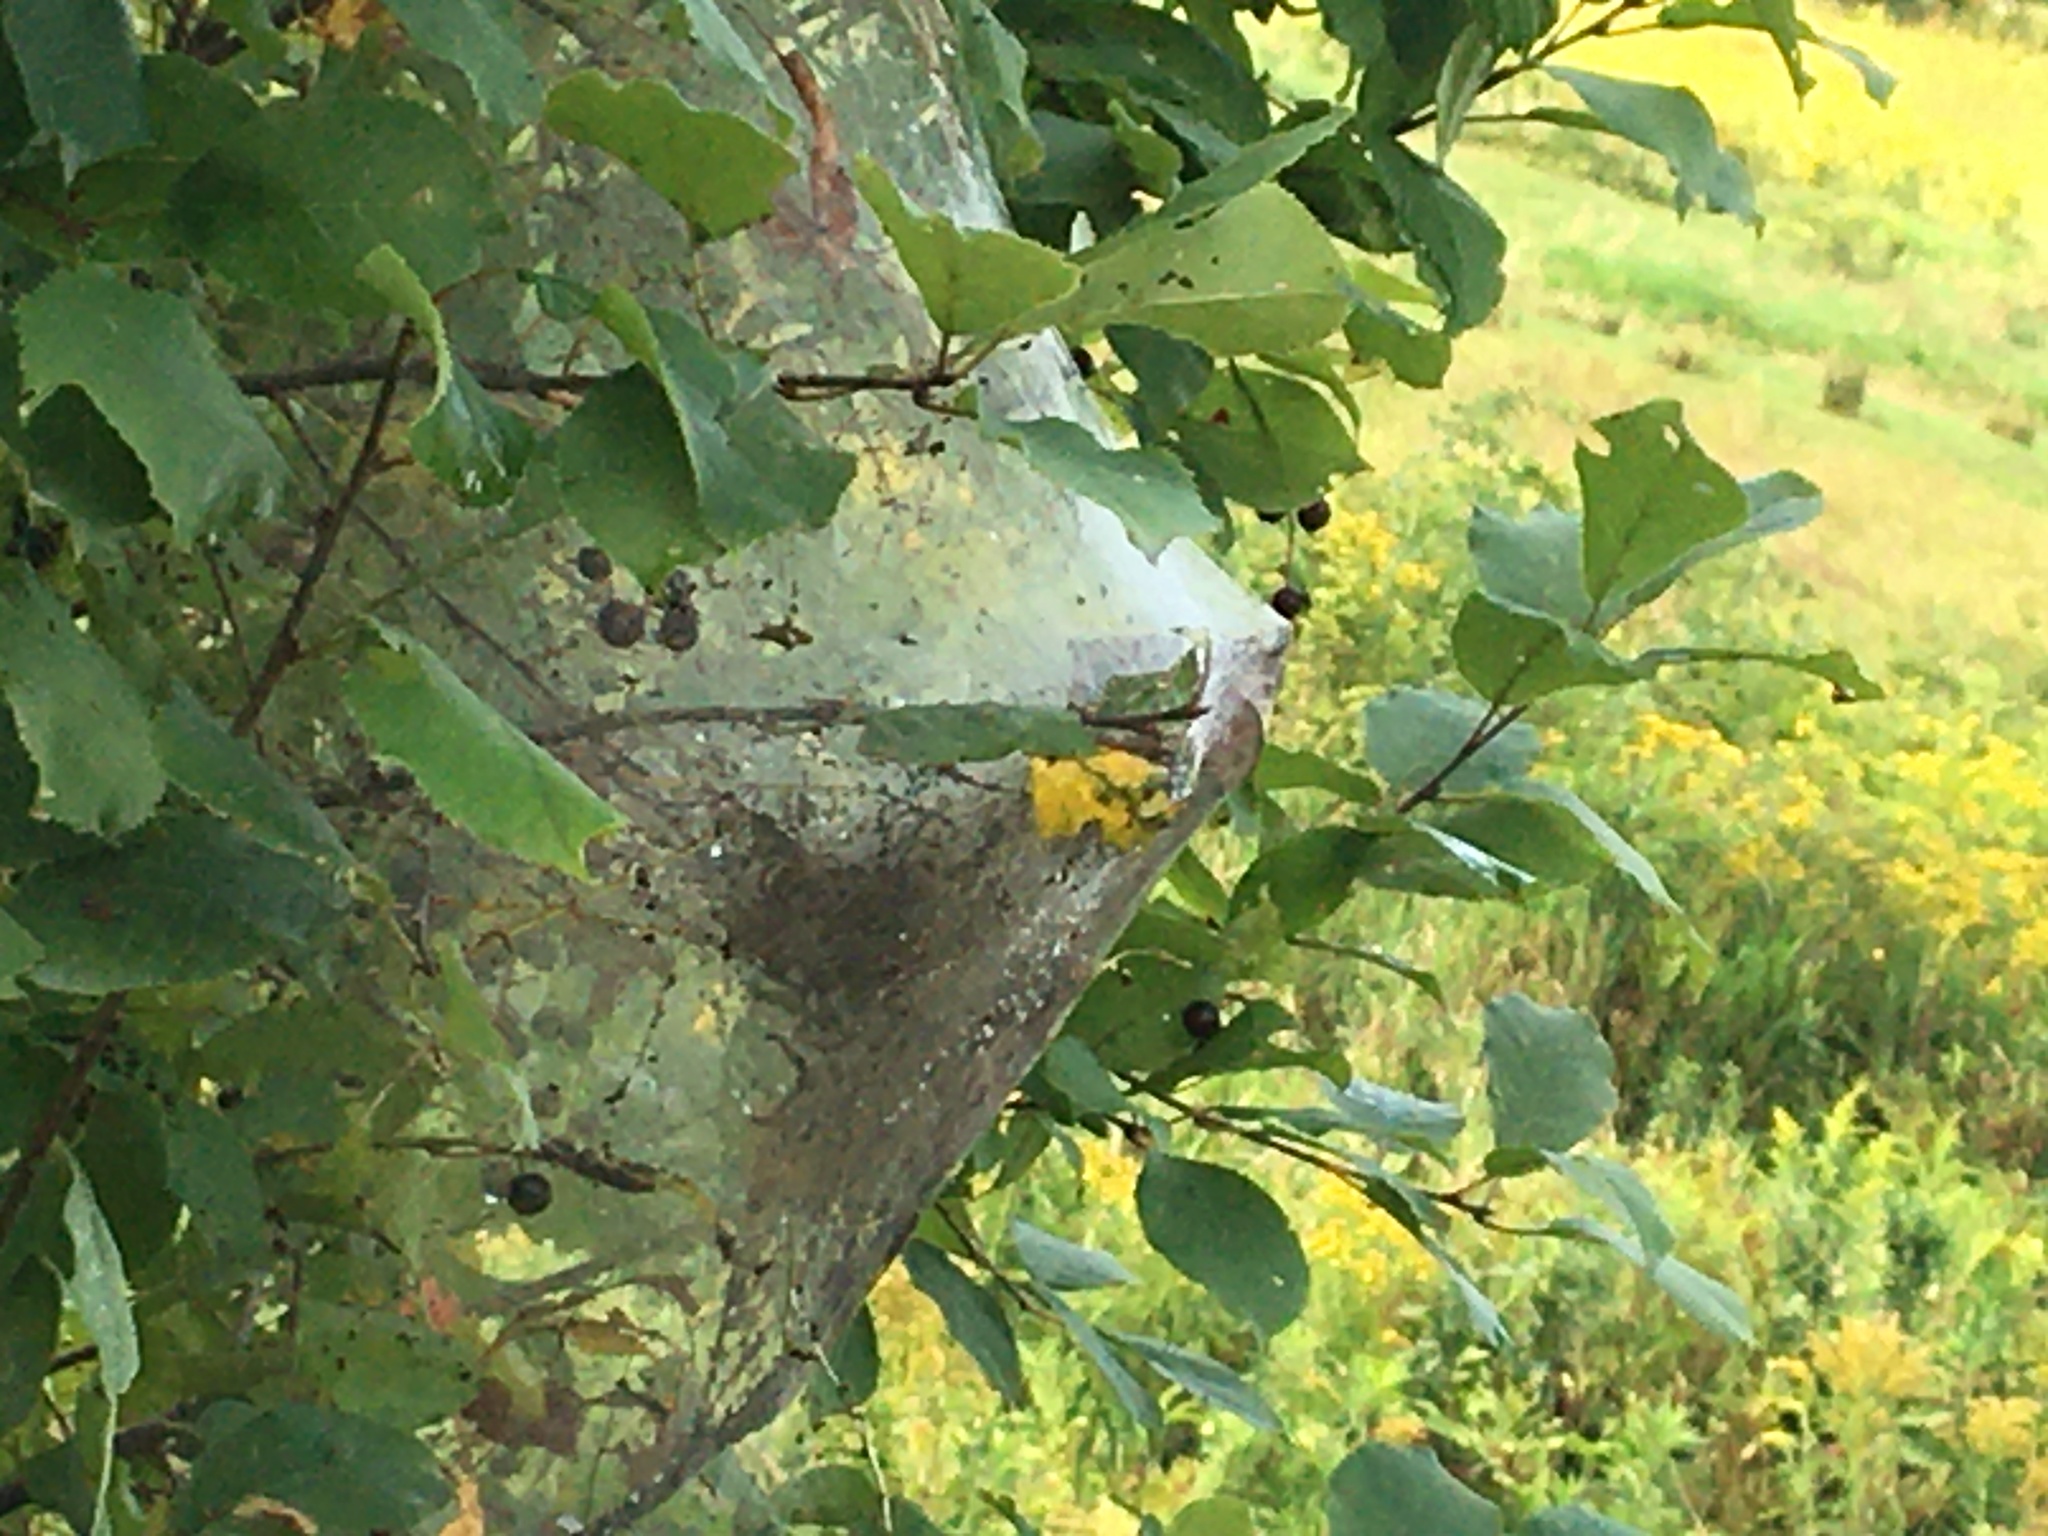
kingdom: Animalia
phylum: Arthropoda
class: Insecta
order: Lepidoptera
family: Erebidae
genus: Hyphantria
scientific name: Hyphantria cunea
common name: American white moth
